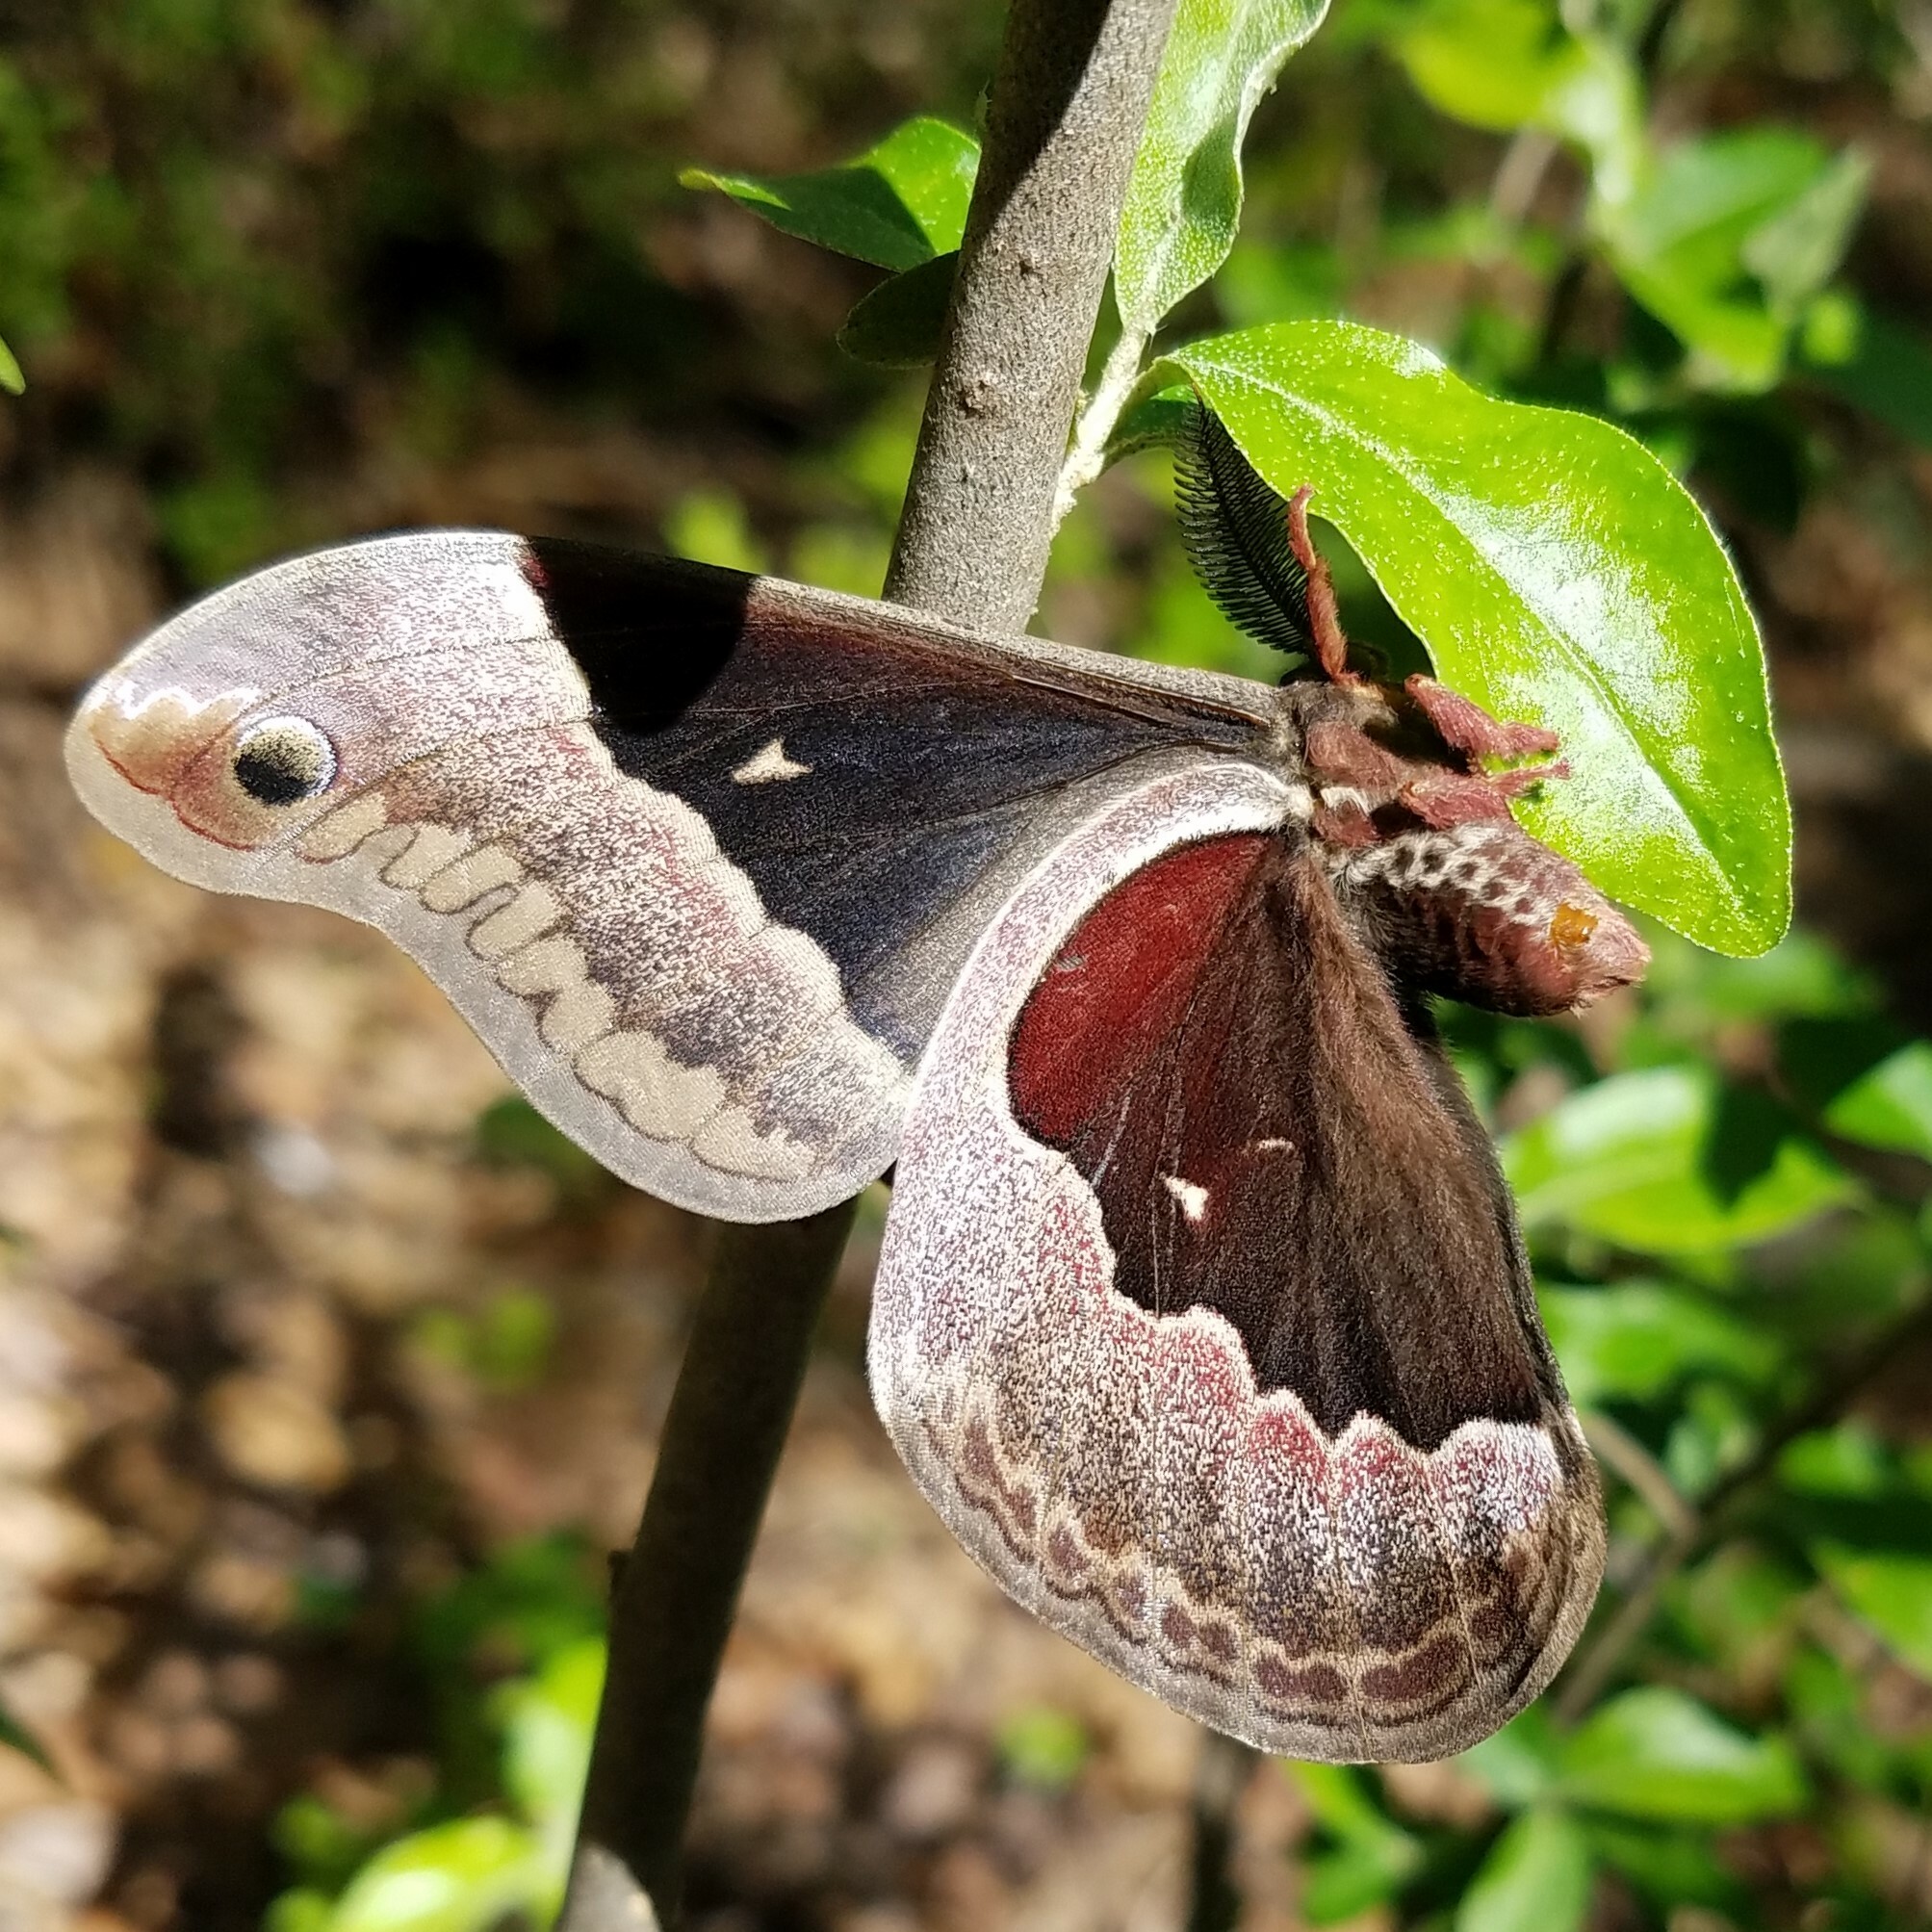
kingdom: Animalia
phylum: Arthropoda
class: Insecta
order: Lepidoptera
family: Saturniidae
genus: Callosamia
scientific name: Callosamia promethea
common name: Promethea silkmoth
